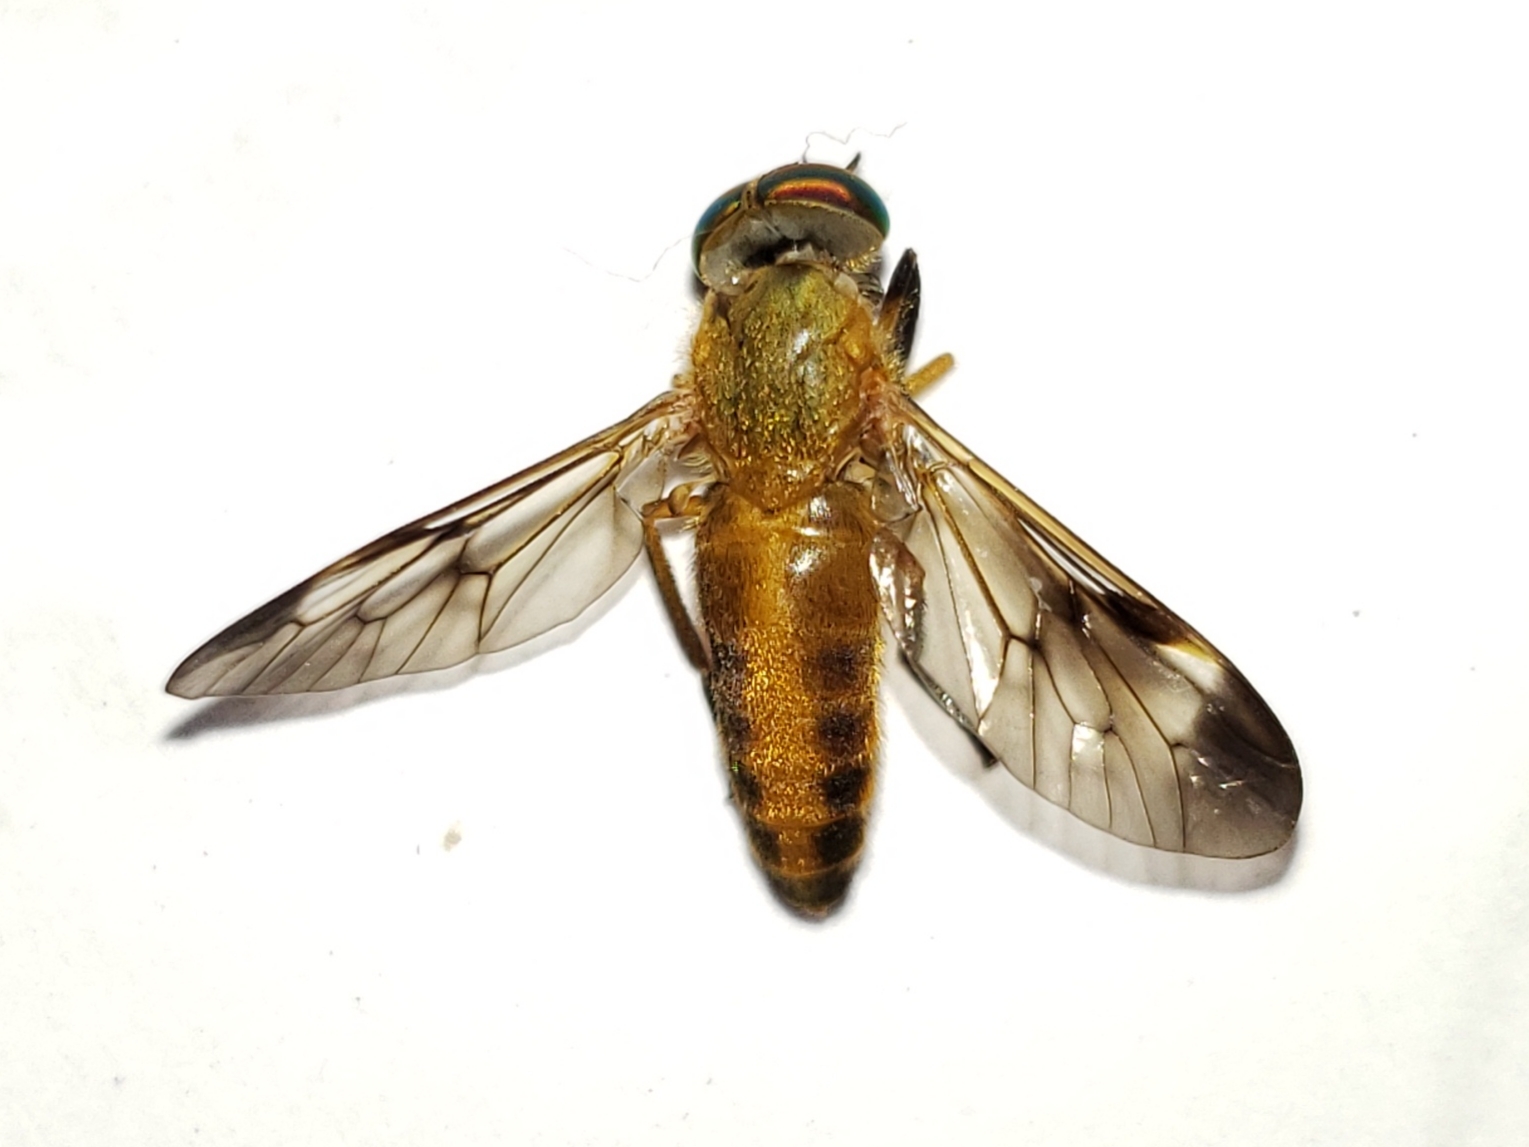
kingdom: Animalia
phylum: Arthropoda
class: Insecta
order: Diptera
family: Tabanidae
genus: Diachlorus
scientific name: Diachlorus ferrugatus
